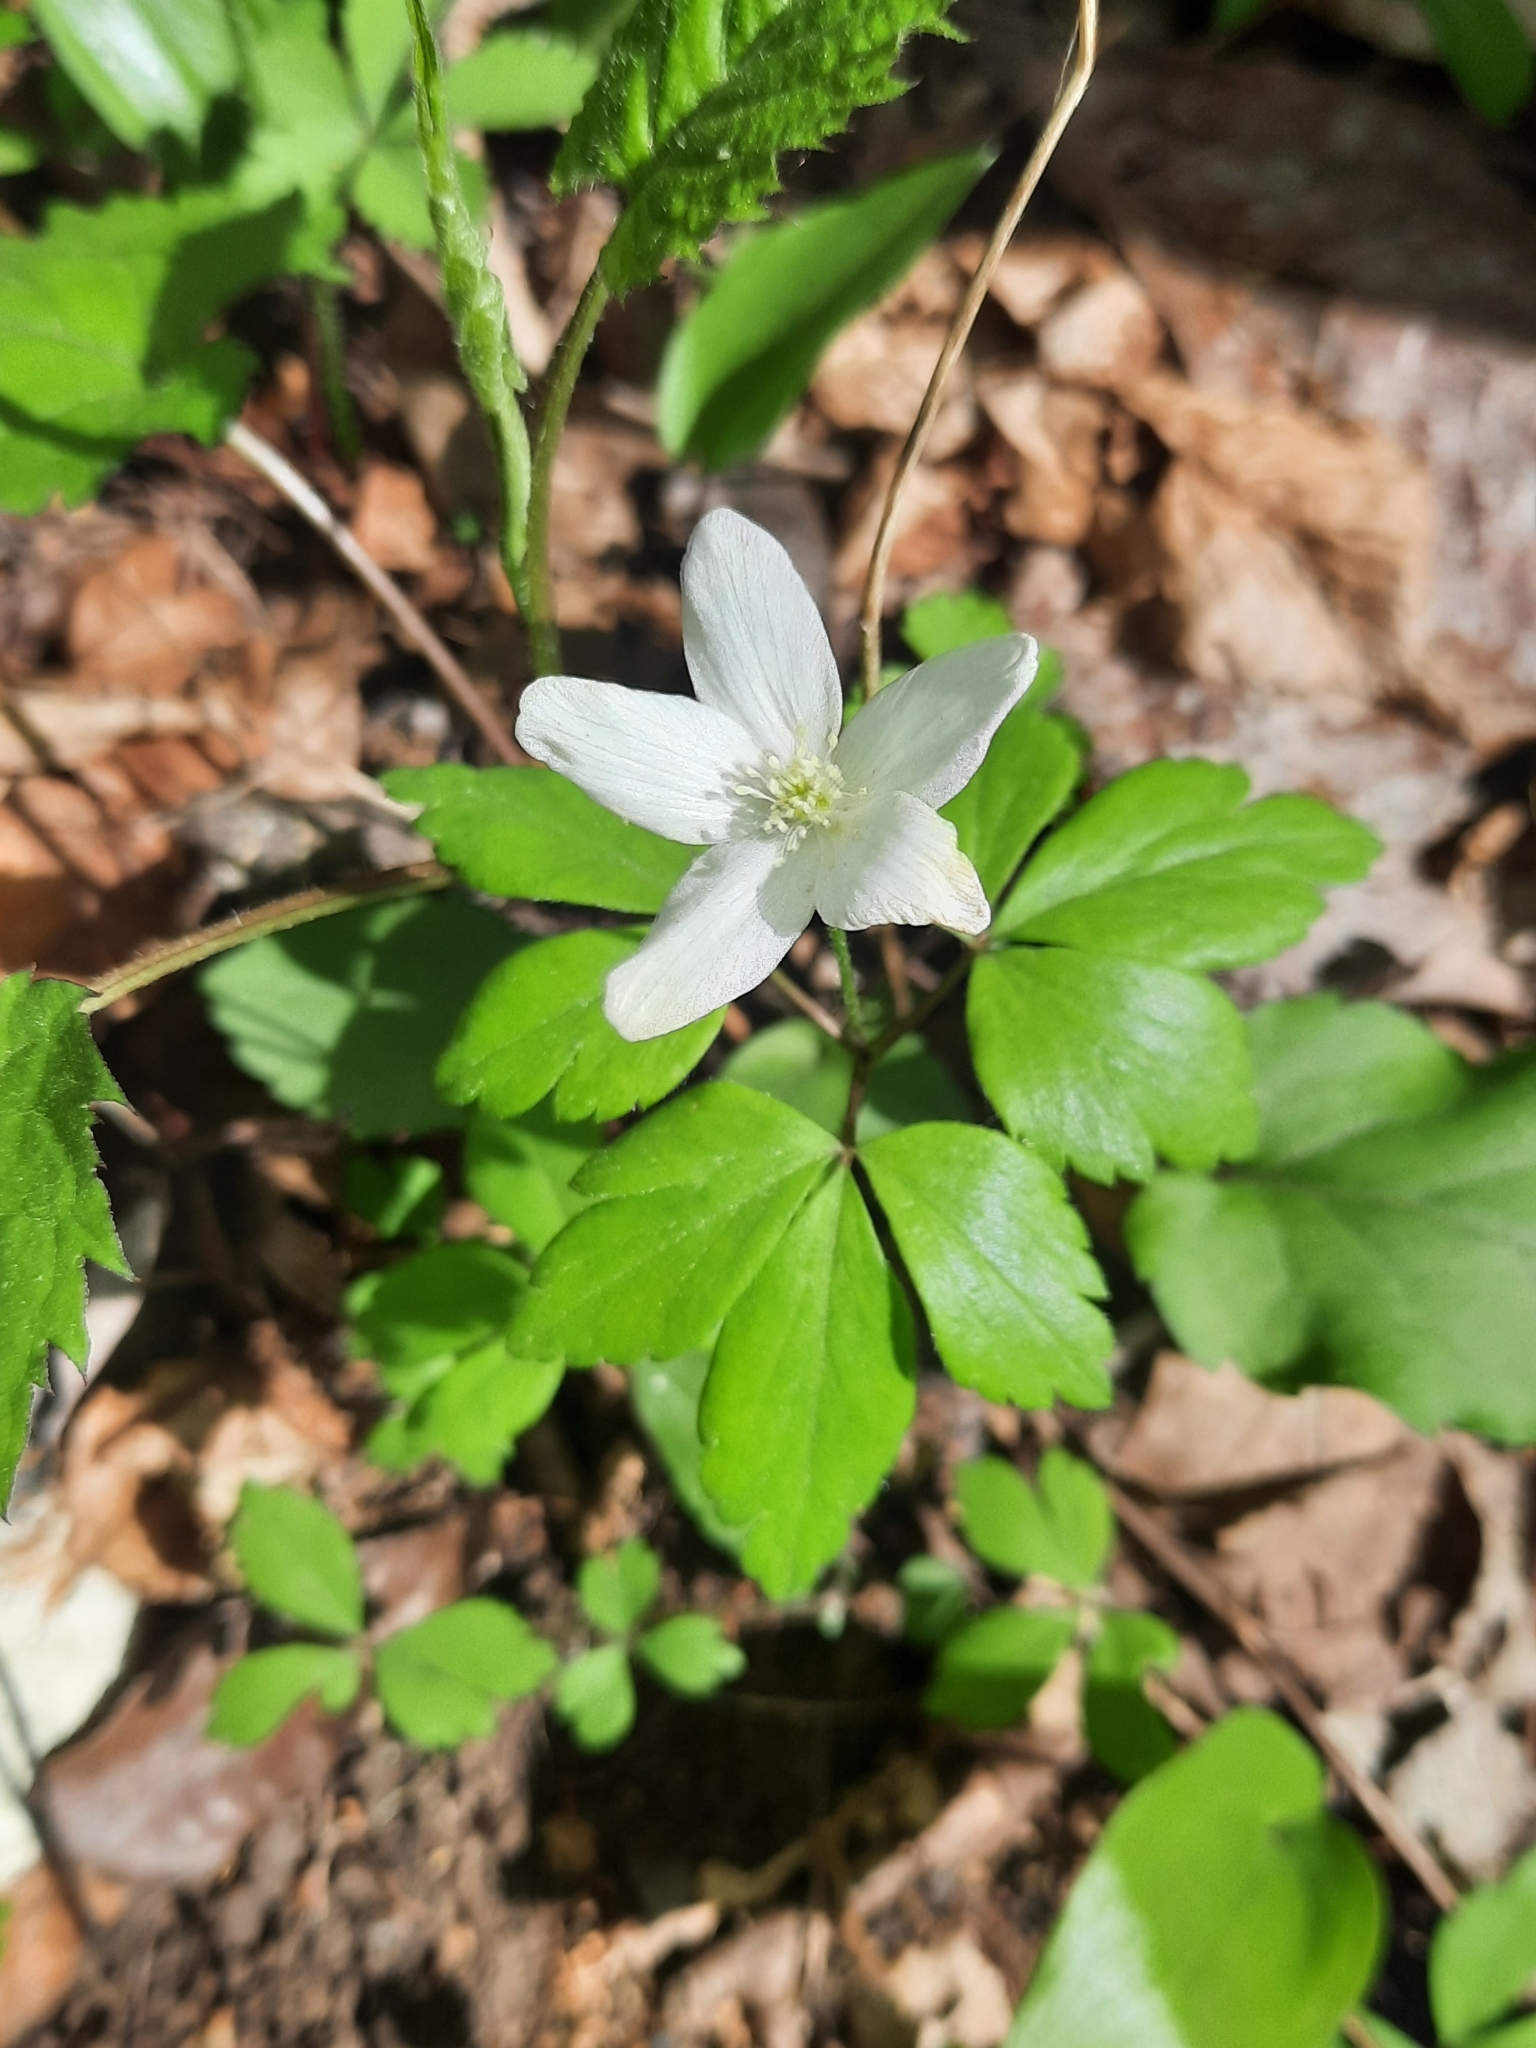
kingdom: Plantae
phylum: Tracheophyta
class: Magnoliopsida
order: Ranunculales
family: Ranunculaceae
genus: Anemone
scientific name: Anemone quinquefolia
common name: Wood anemone
